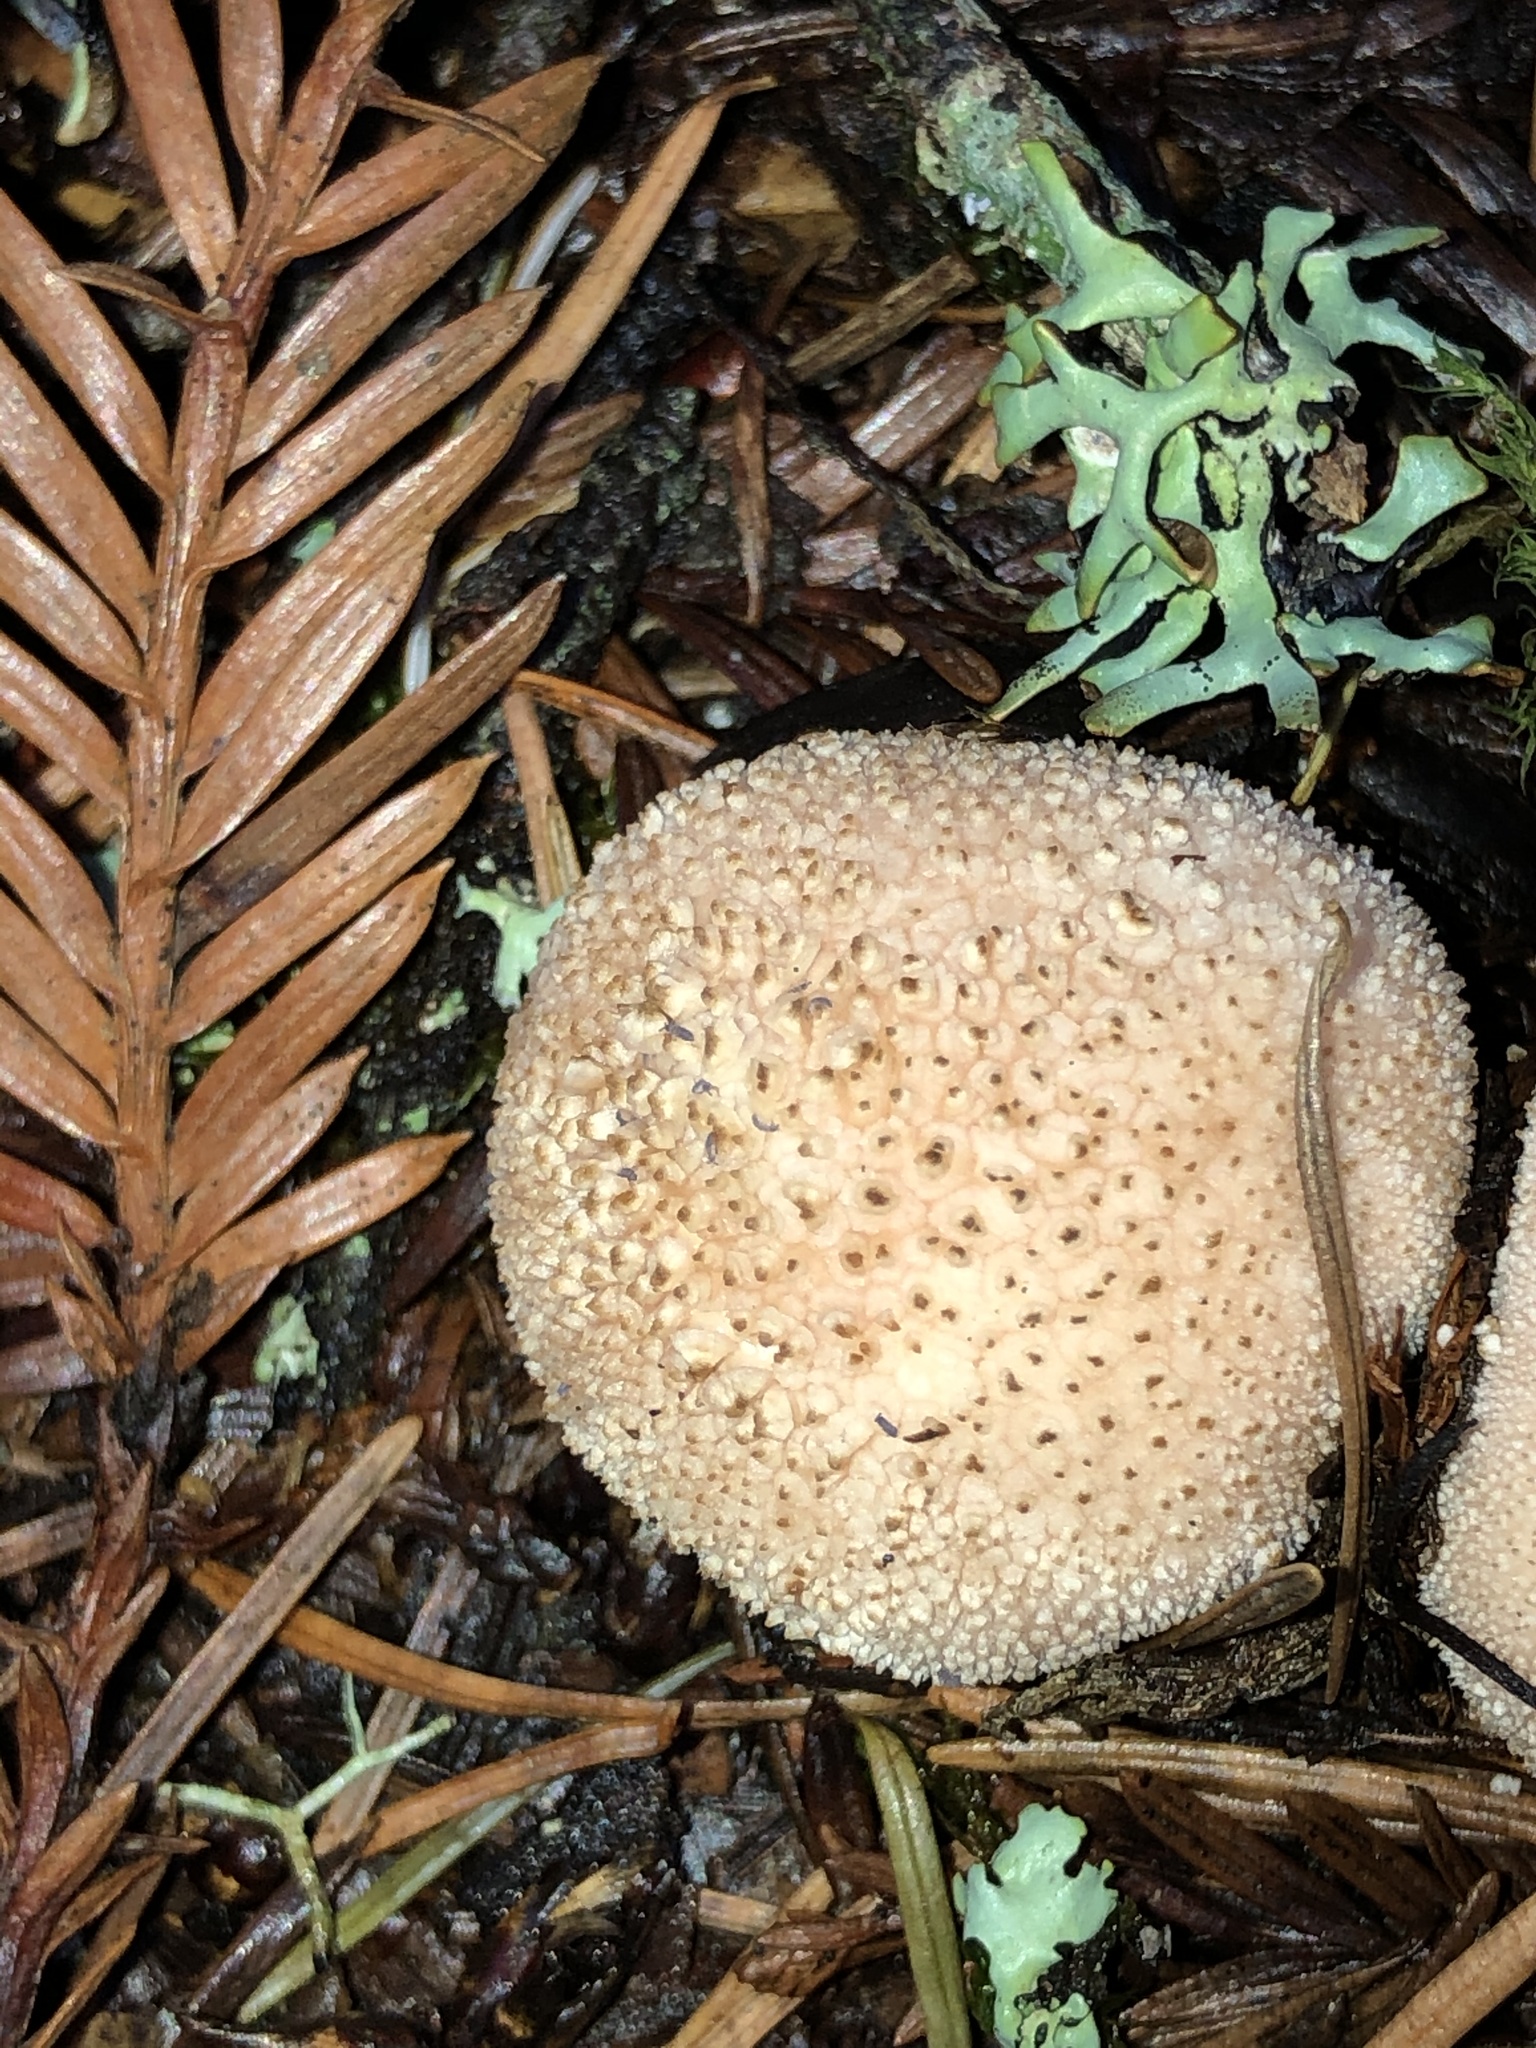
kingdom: Fungi
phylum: Basidiomycota
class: Agaricomycetes
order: Agaricales
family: Lycoperdaceae
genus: Lycoperdon
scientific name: Lycoperdon perlatum
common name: Common puffball
